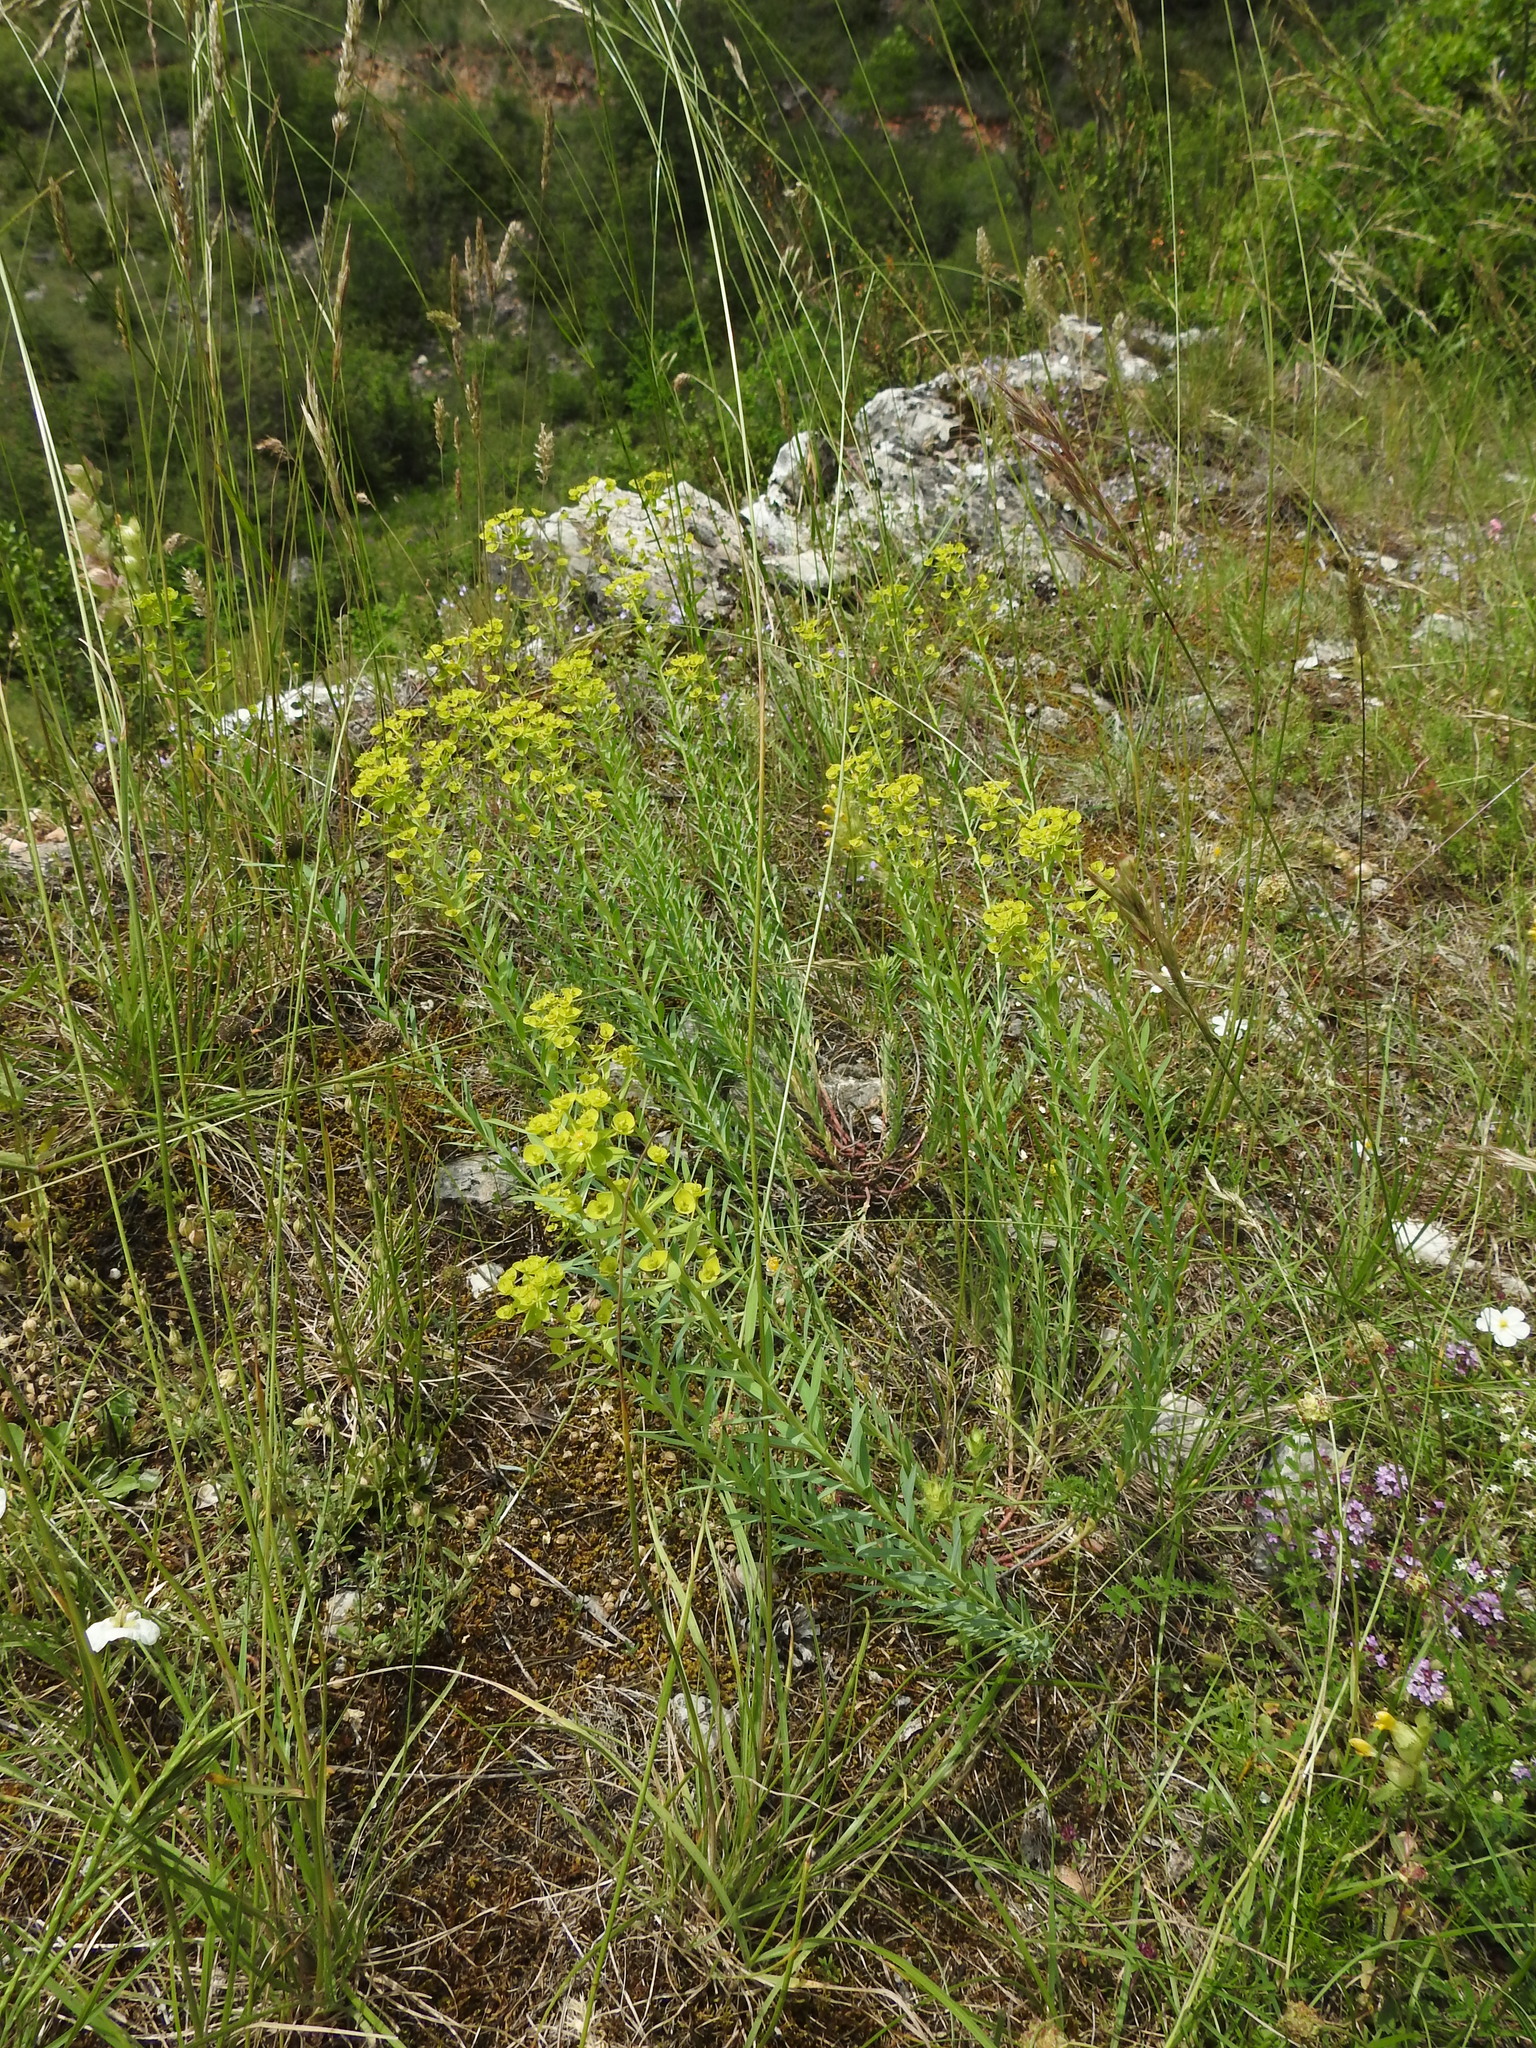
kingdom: Plantae
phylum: Tracheophyta
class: Magnoliopsida
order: Malpighiales
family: Euphorbiaceae
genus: Euphorbia
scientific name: Euphorbia seguieriana
